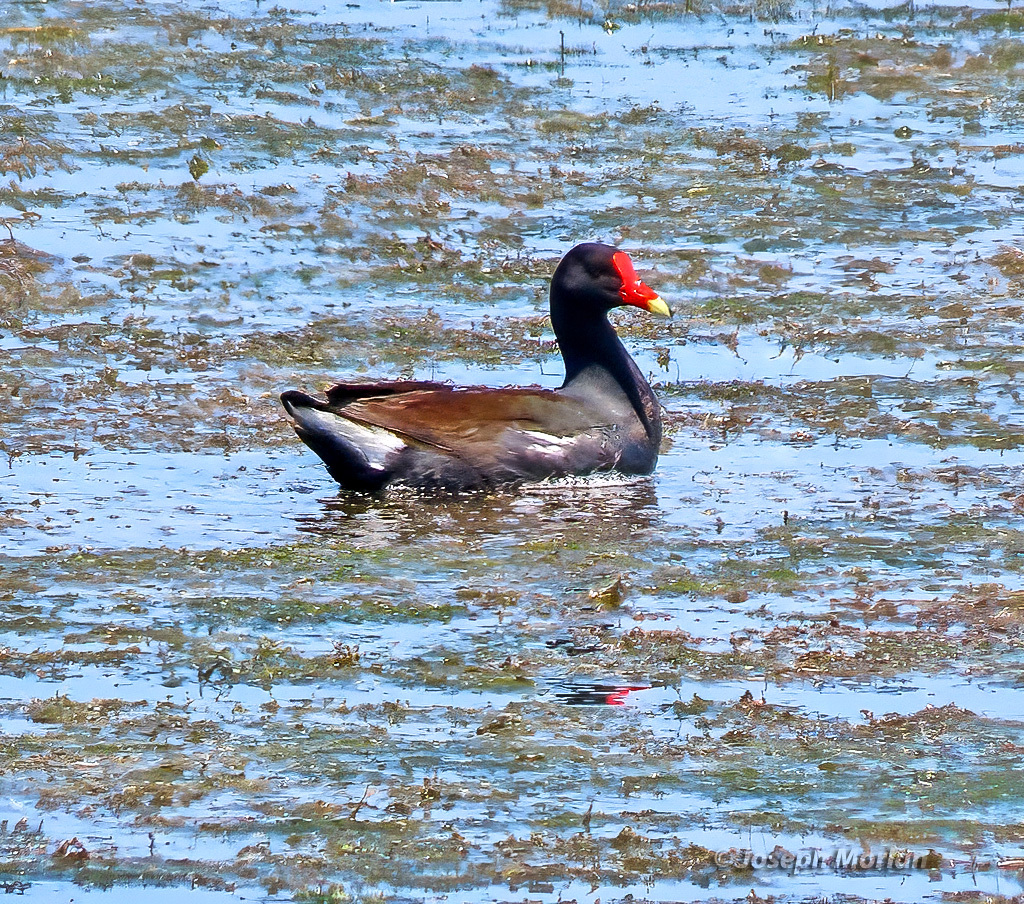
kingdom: Animalia
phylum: Chordata
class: Aves
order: Gruiformes
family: Rallidae
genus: Gallinula
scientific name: Gallinula chloropus
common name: Common moorhen
